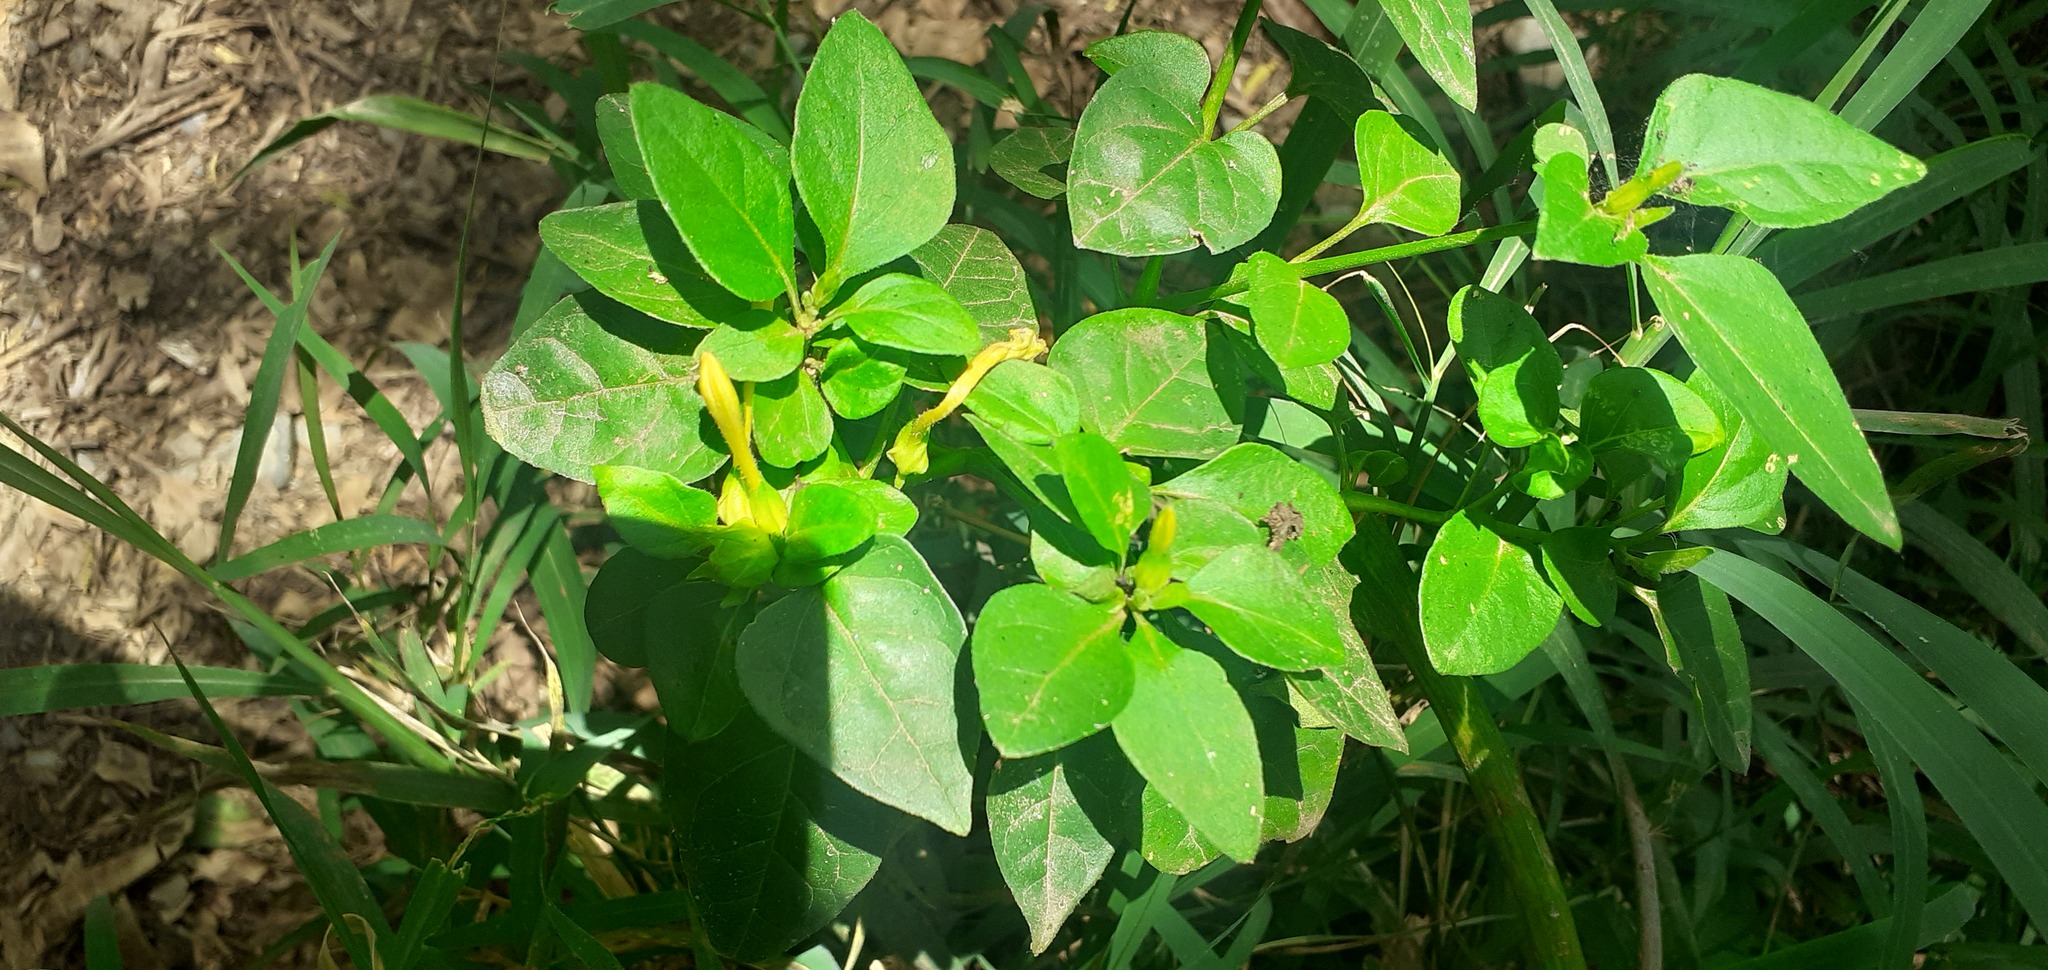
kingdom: Plantae
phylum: Tracheophyta
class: Magnoliopsida
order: Caryophyllales
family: Nyctaginaceae
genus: Mirabilis
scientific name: Mirabilis jalapa
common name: Marvel-of-peru
